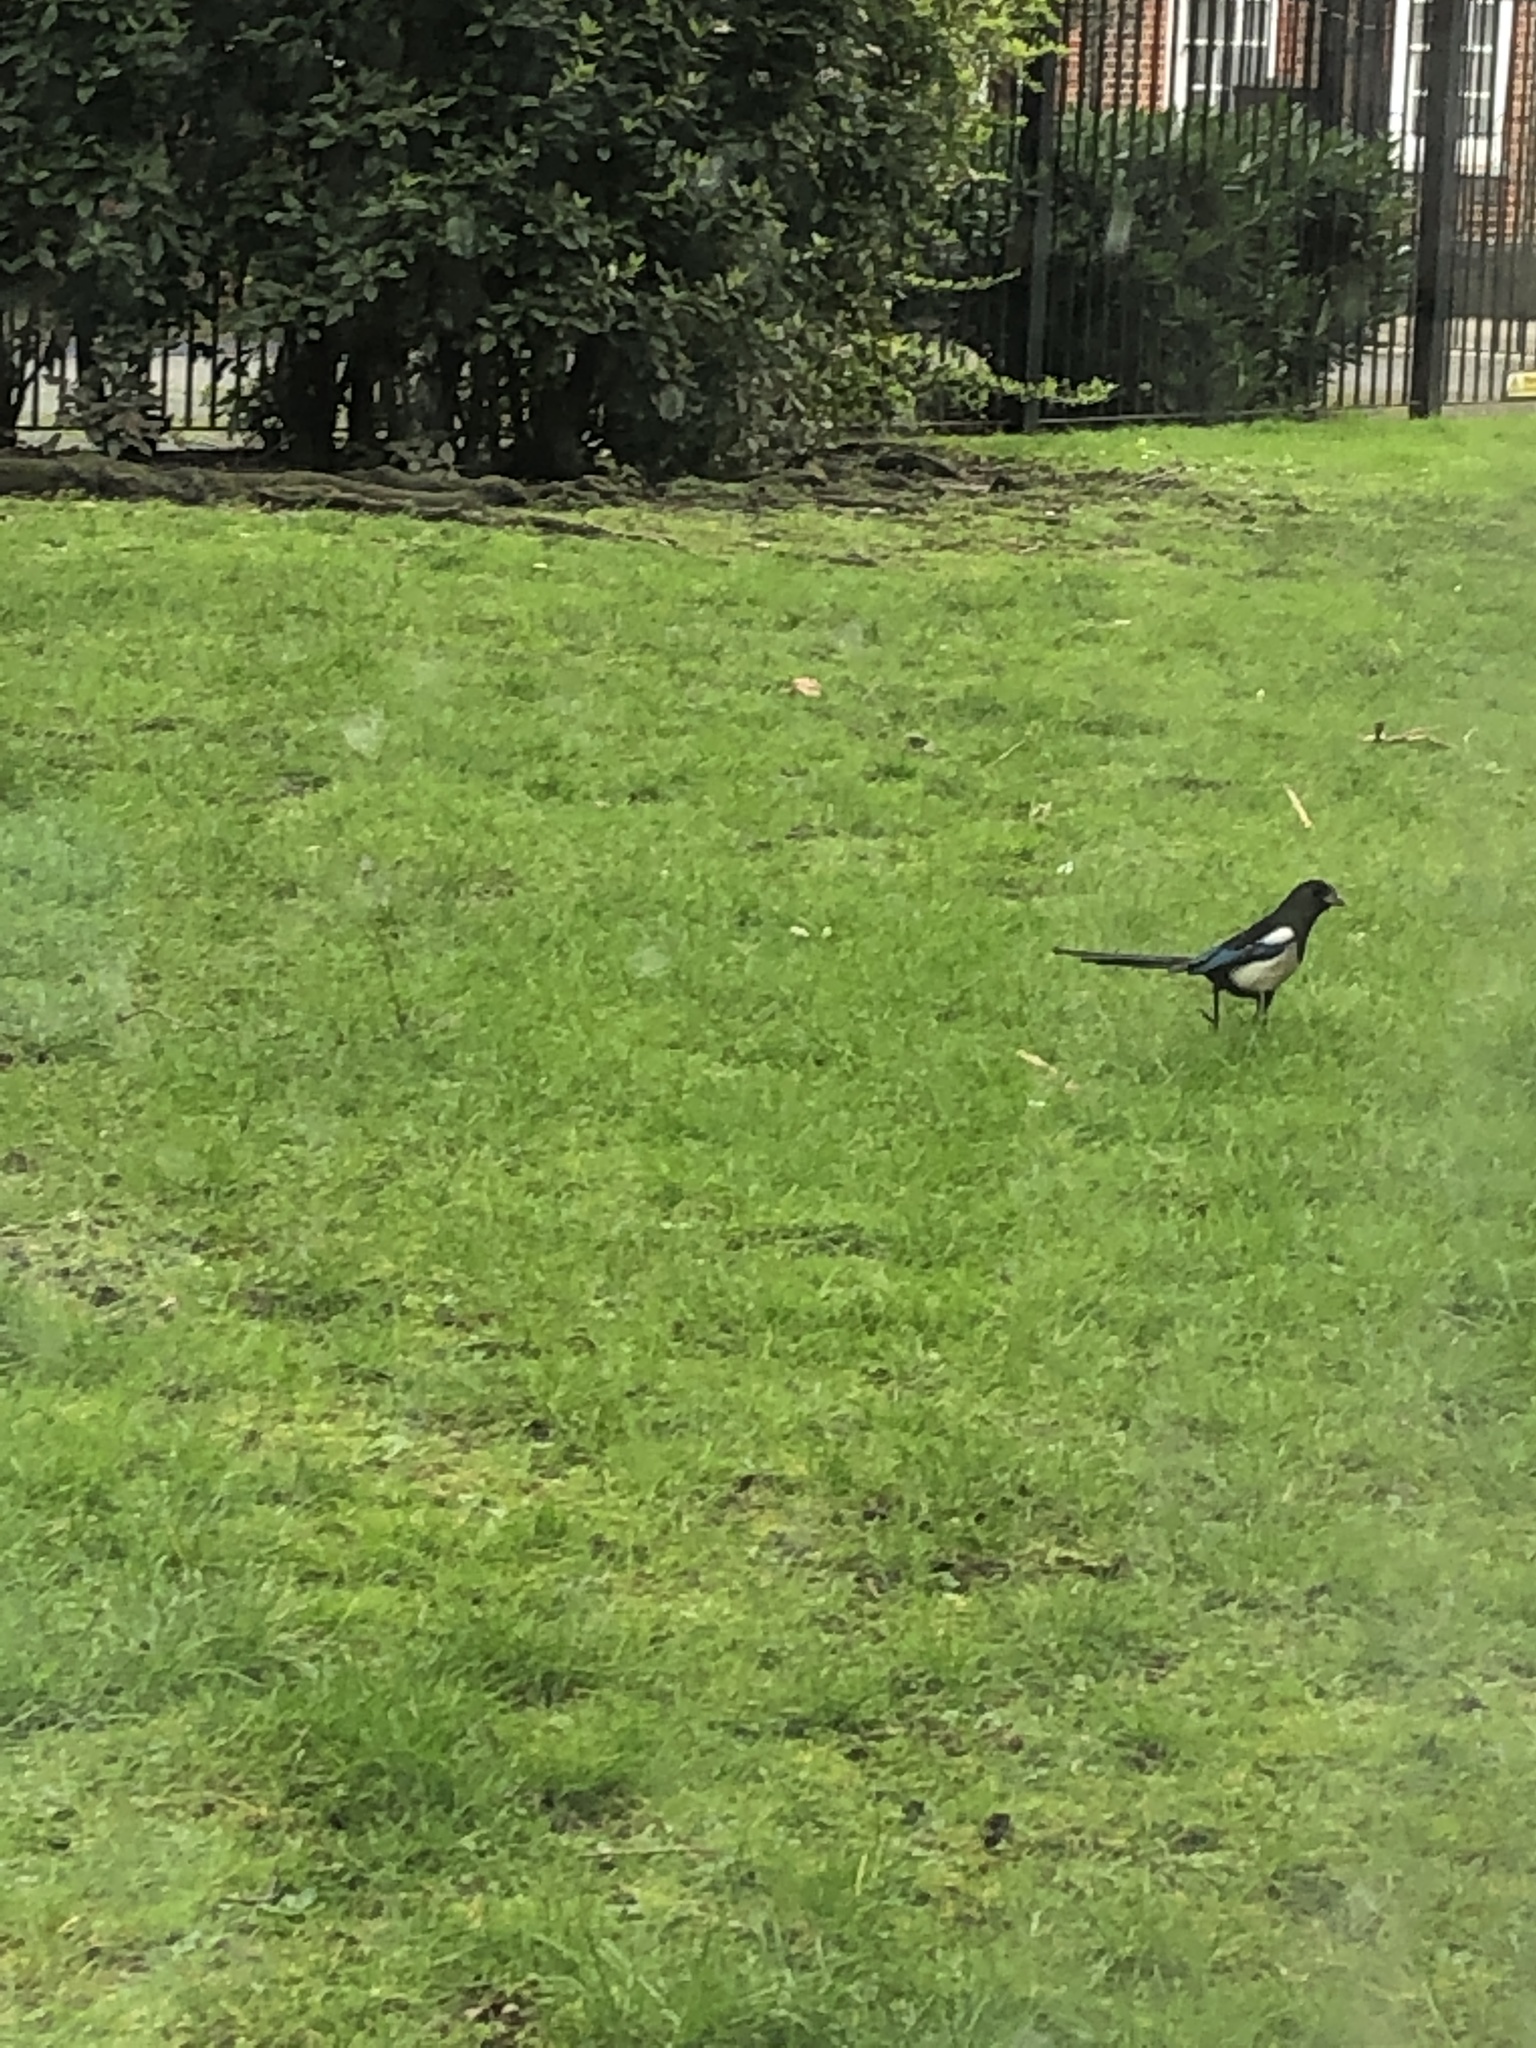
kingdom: Animalia
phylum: Chordata
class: Aves
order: Passeriformes
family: Corvidae
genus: Pica
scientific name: Pica pica
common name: Eurasian magpie
